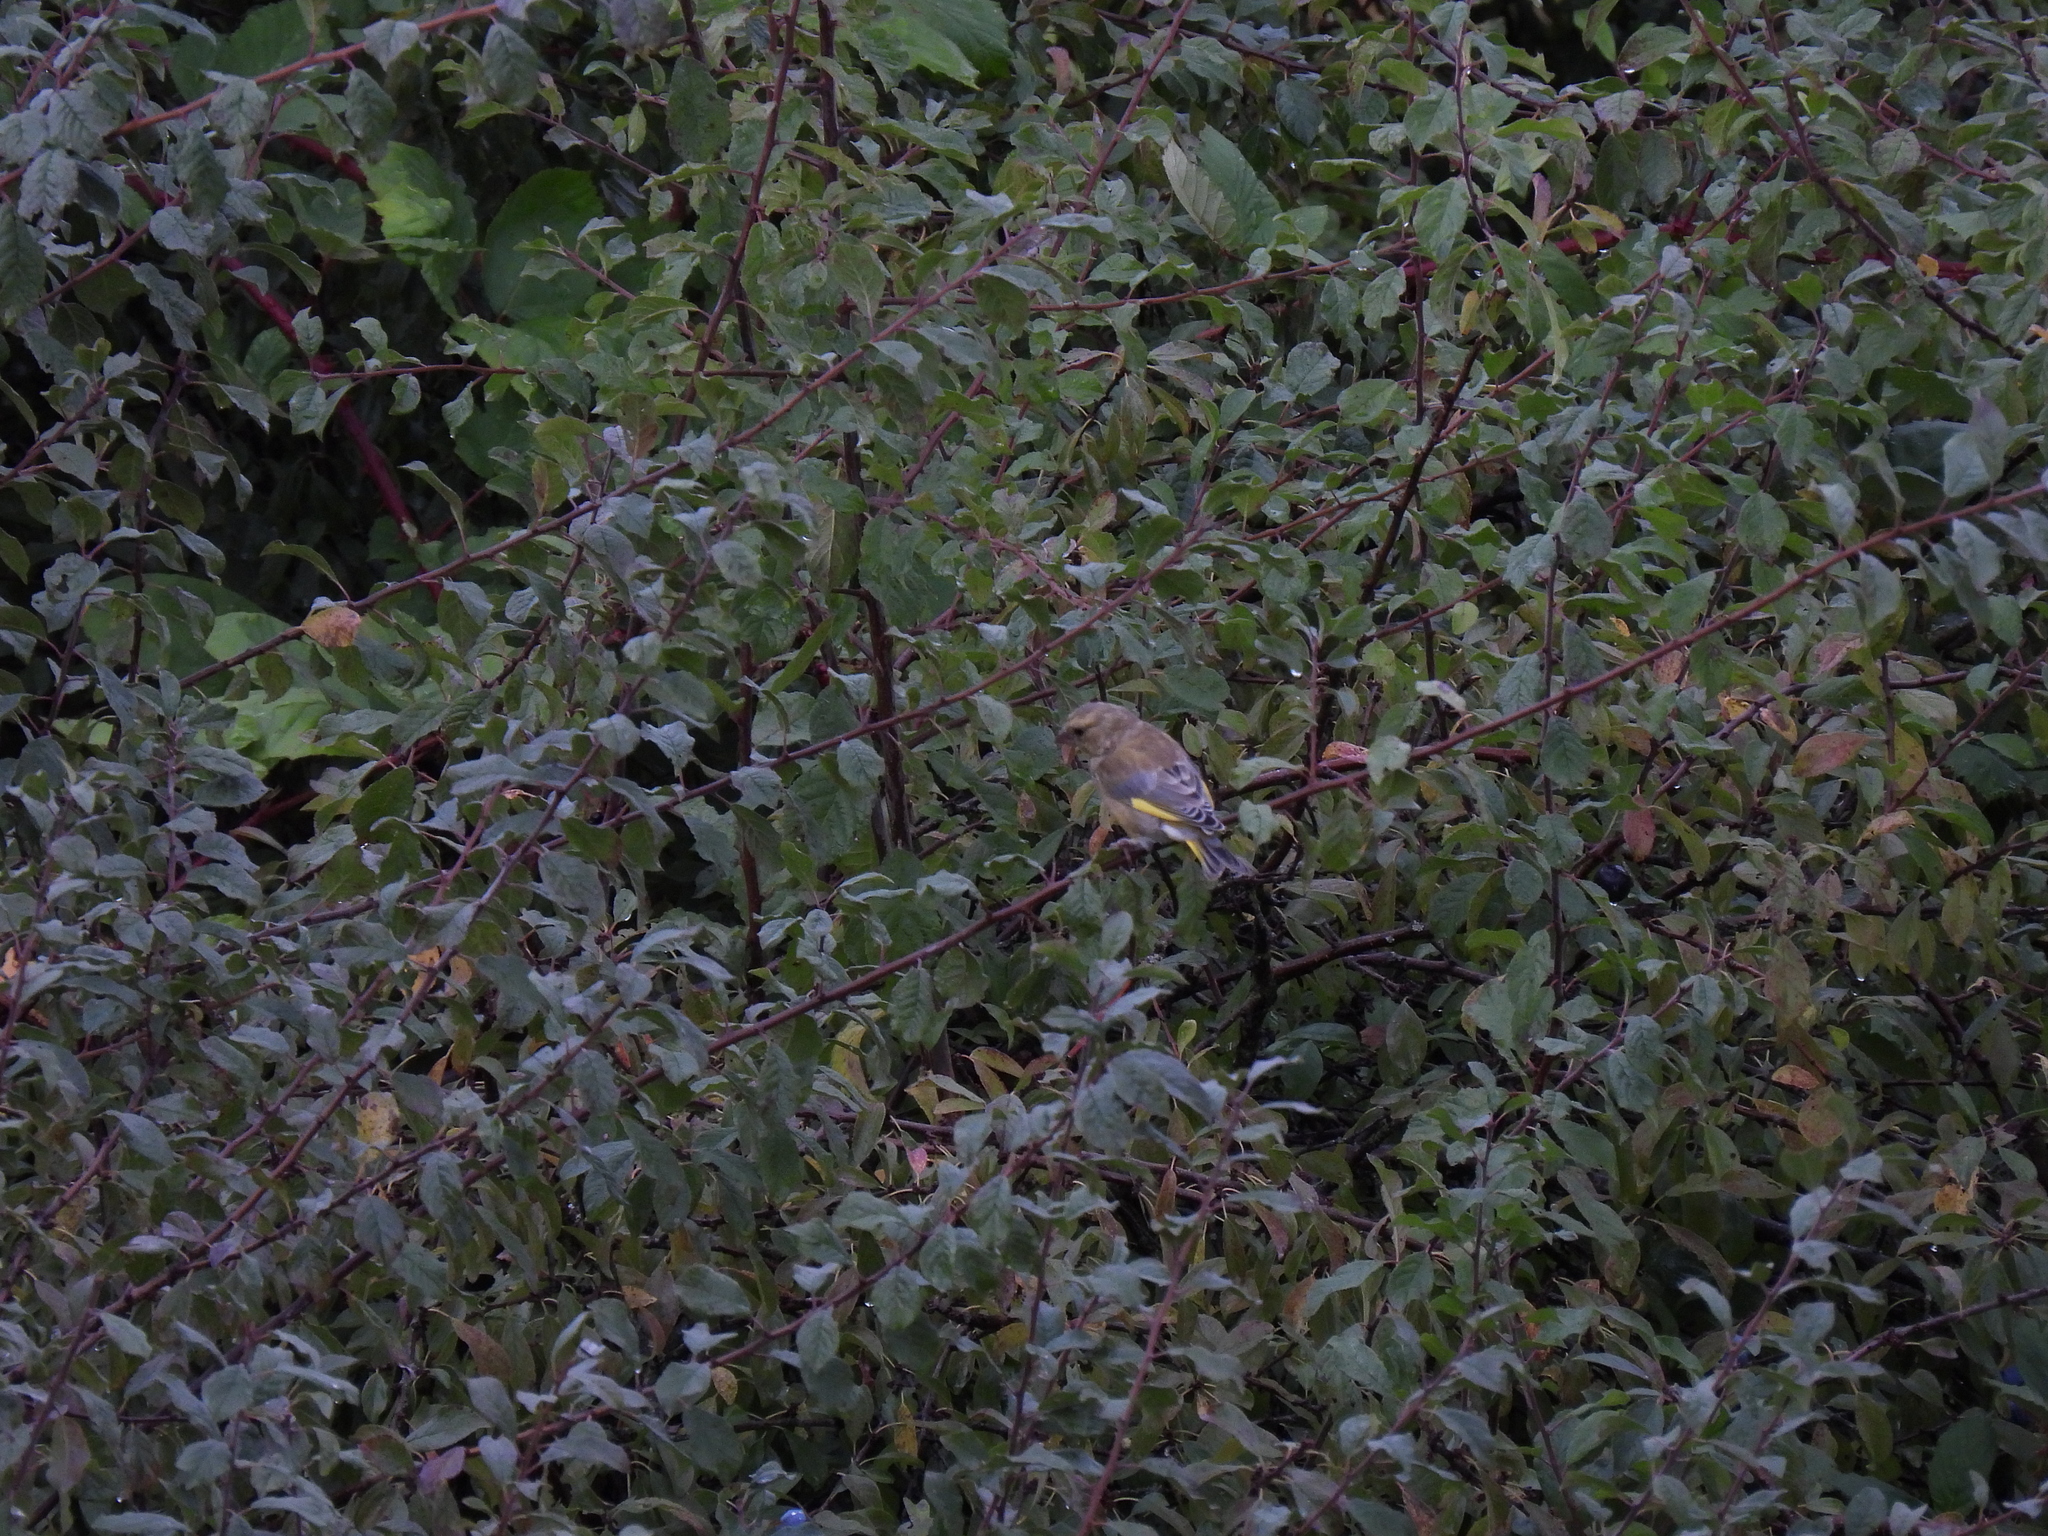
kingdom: Plantae
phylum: Tracheophyta
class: Liliopsida
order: Poales
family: Poaceae
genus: Chloris
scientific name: Chloris chloris
